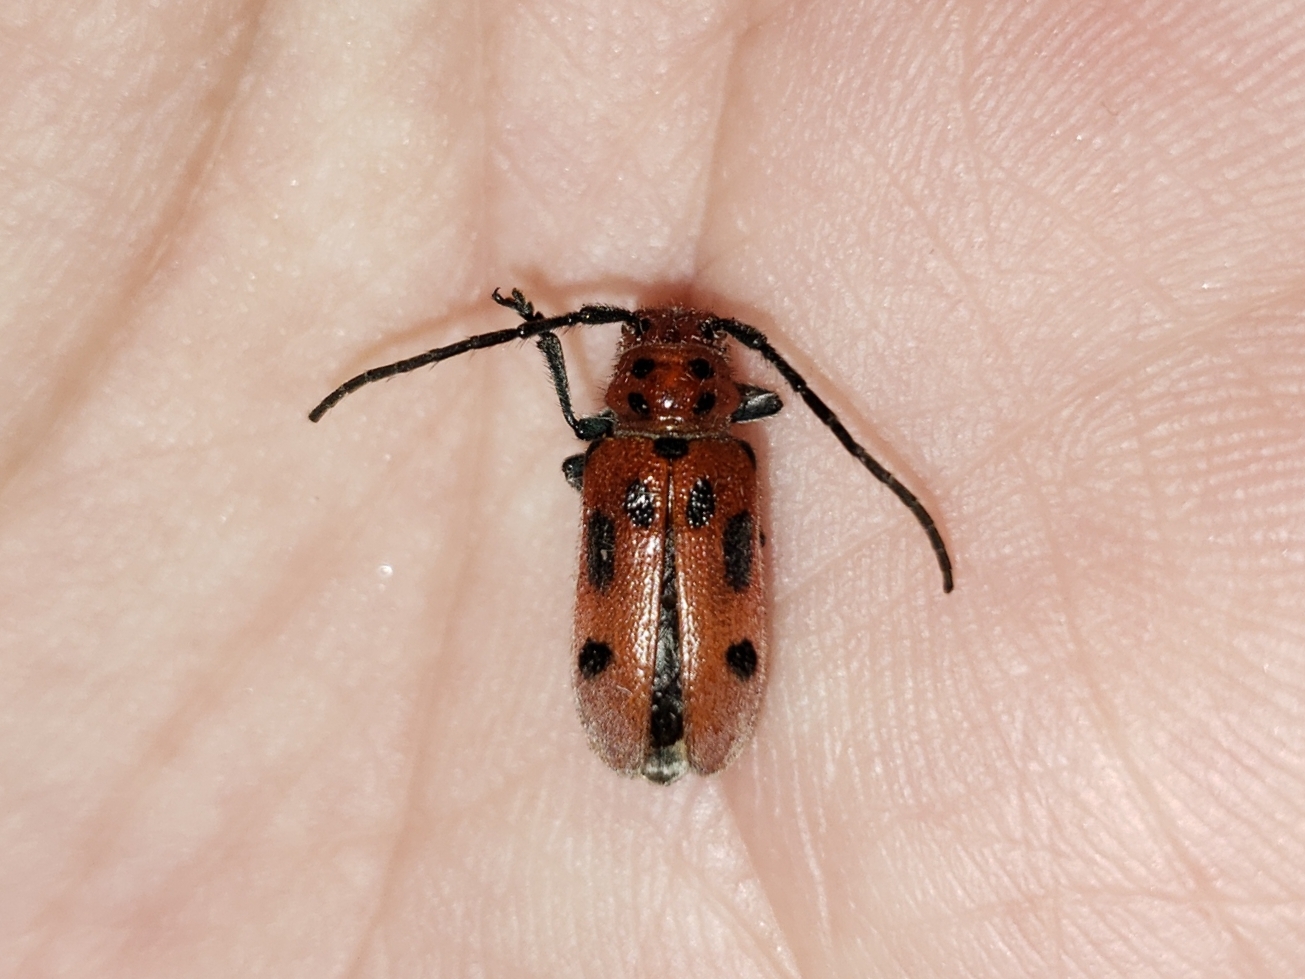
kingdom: Animalia
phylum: Arthropoda
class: Insecta
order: Coleoptera
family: Cerambycidae
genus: Tetraopes
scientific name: Tetraopes tetrophthalmus
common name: Red milkweed beetle
